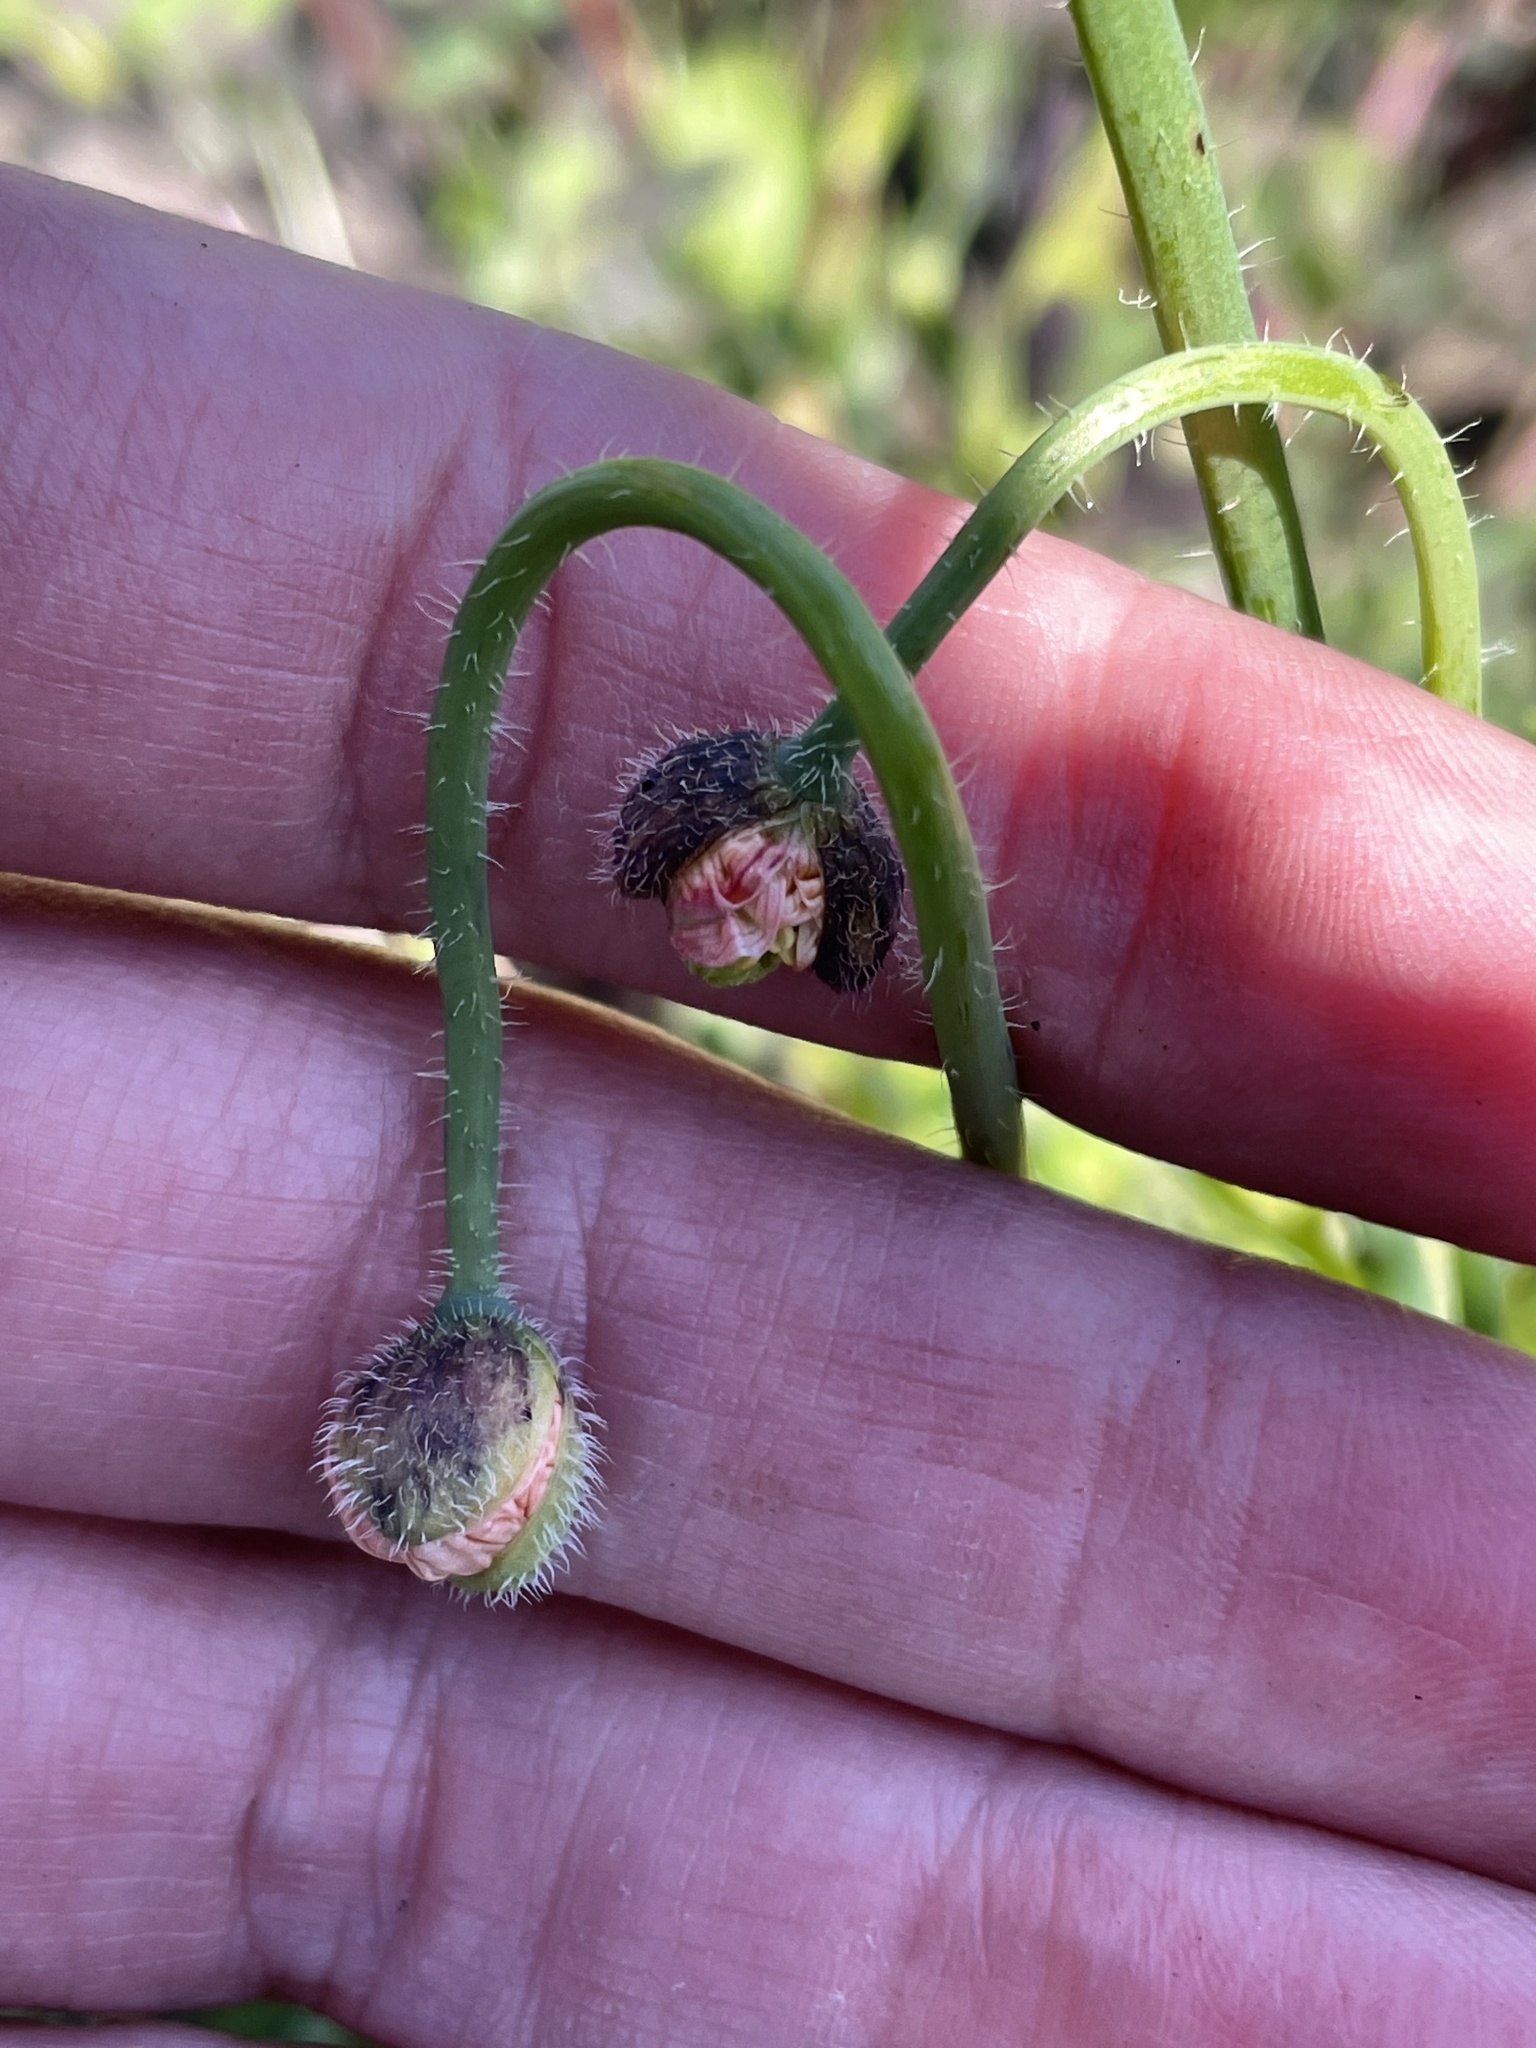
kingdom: Plantae
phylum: Tracheophyta
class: Magnoliopsida
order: Ranunculales
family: Papaveraceae
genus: Papaver
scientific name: Papaver californicum
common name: Fire poppy
